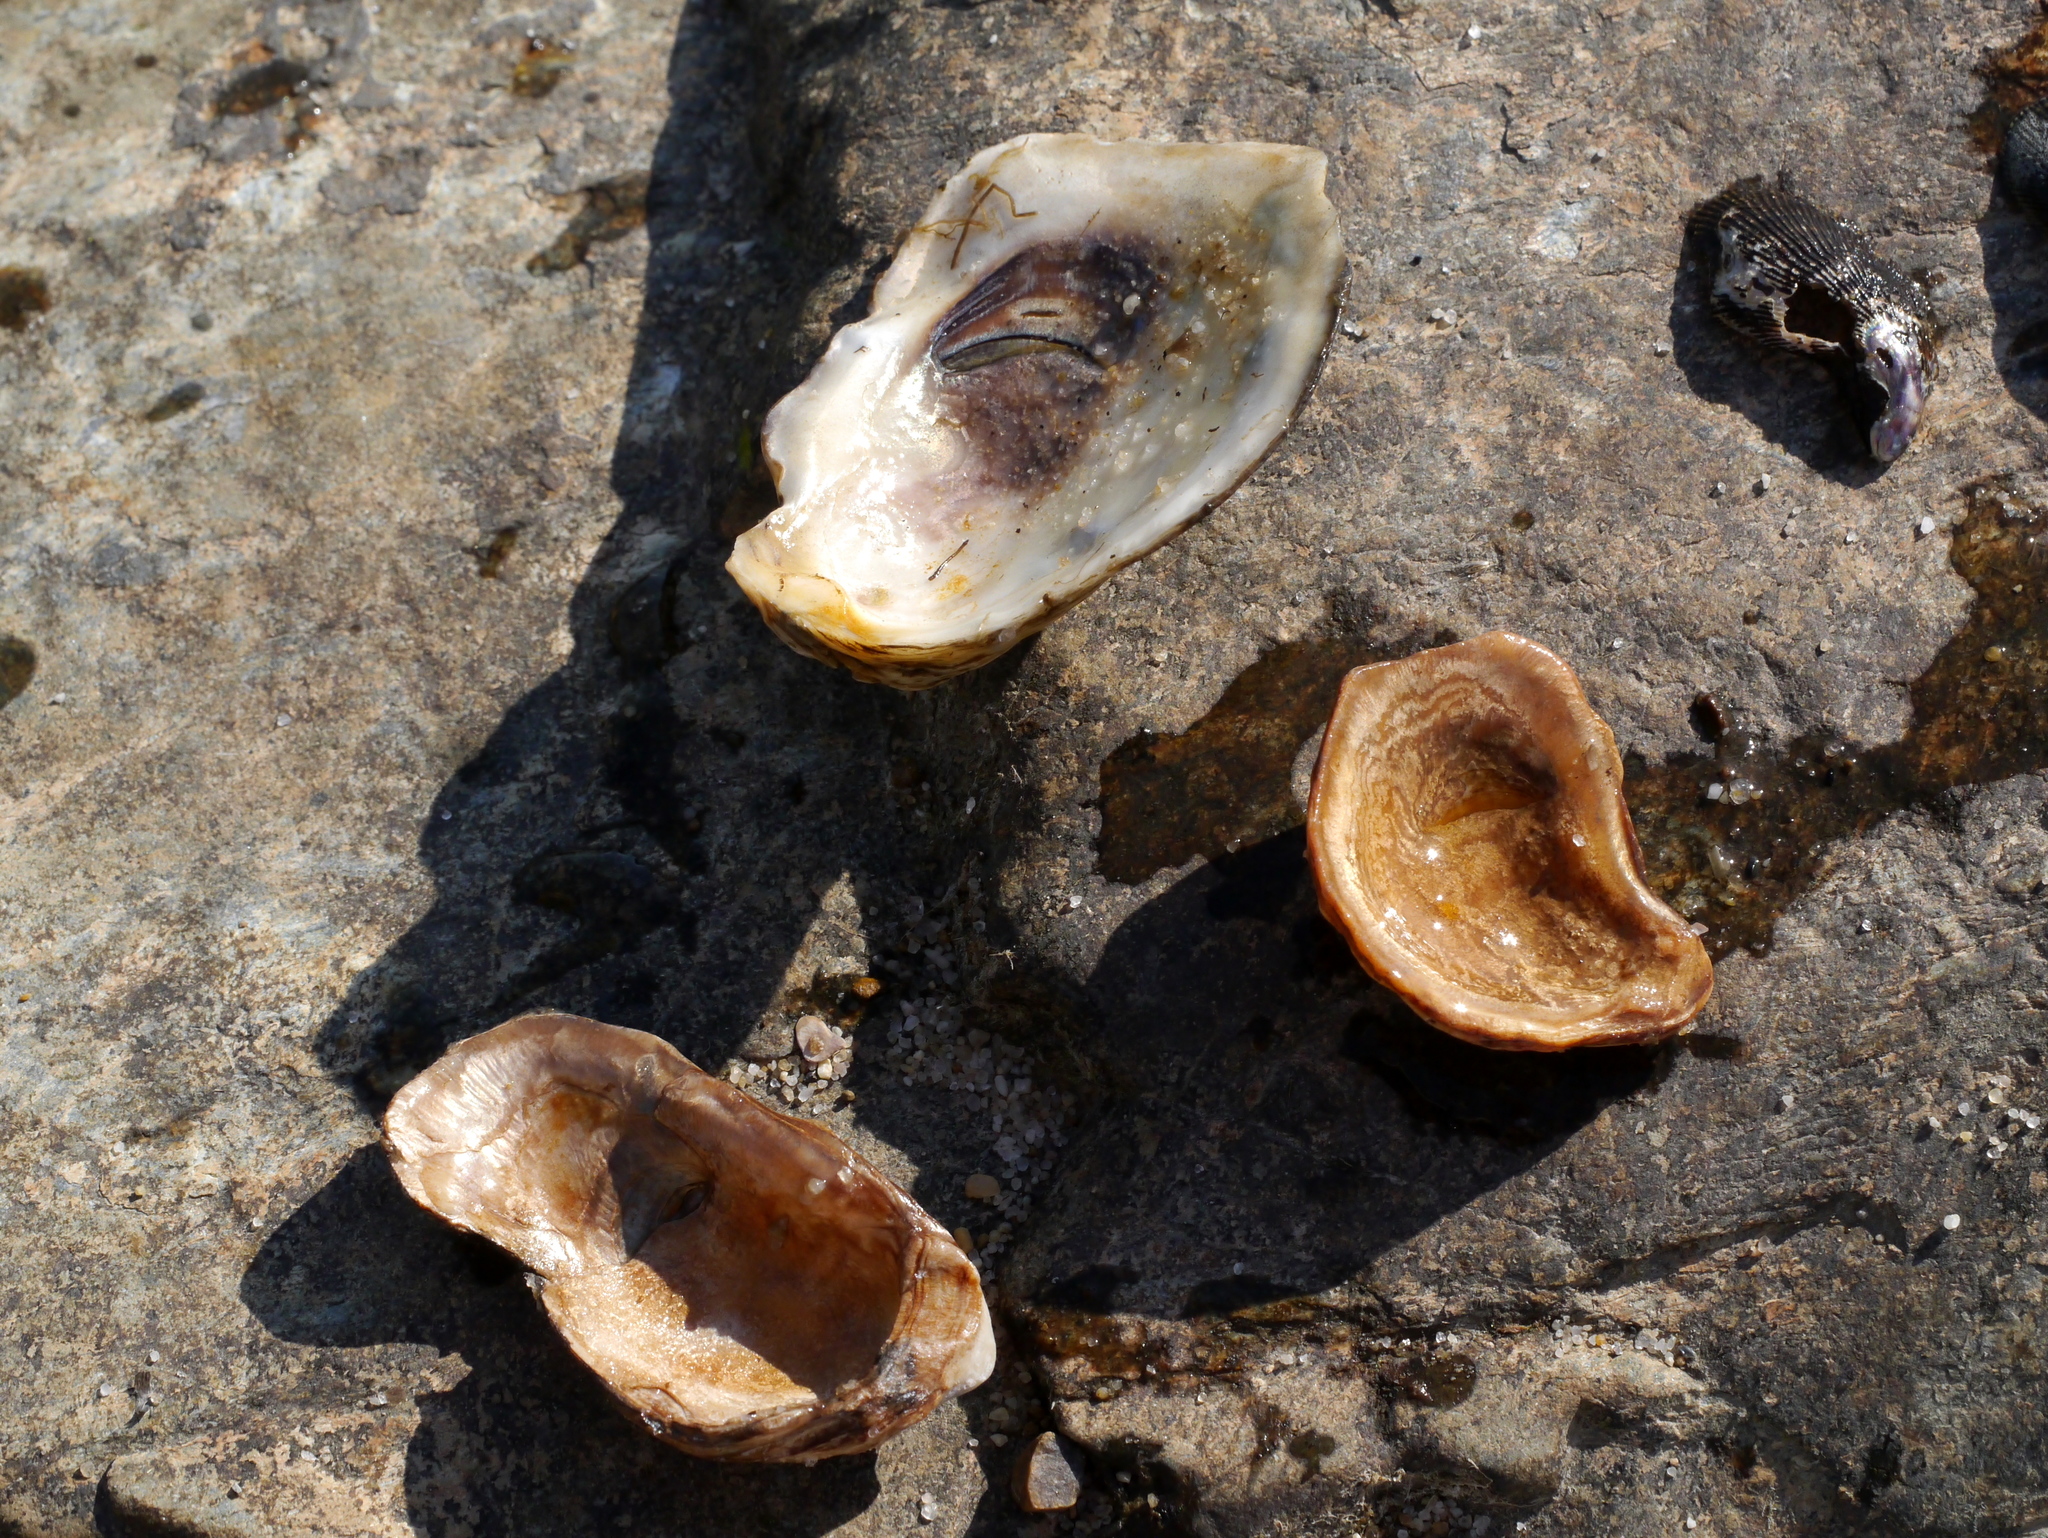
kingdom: Animalia
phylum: Mollusca
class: Bivalvia
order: Ostreida
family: Ostreidae
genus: Crassostrea
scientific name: Crassostrea virginica
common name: American oyster
